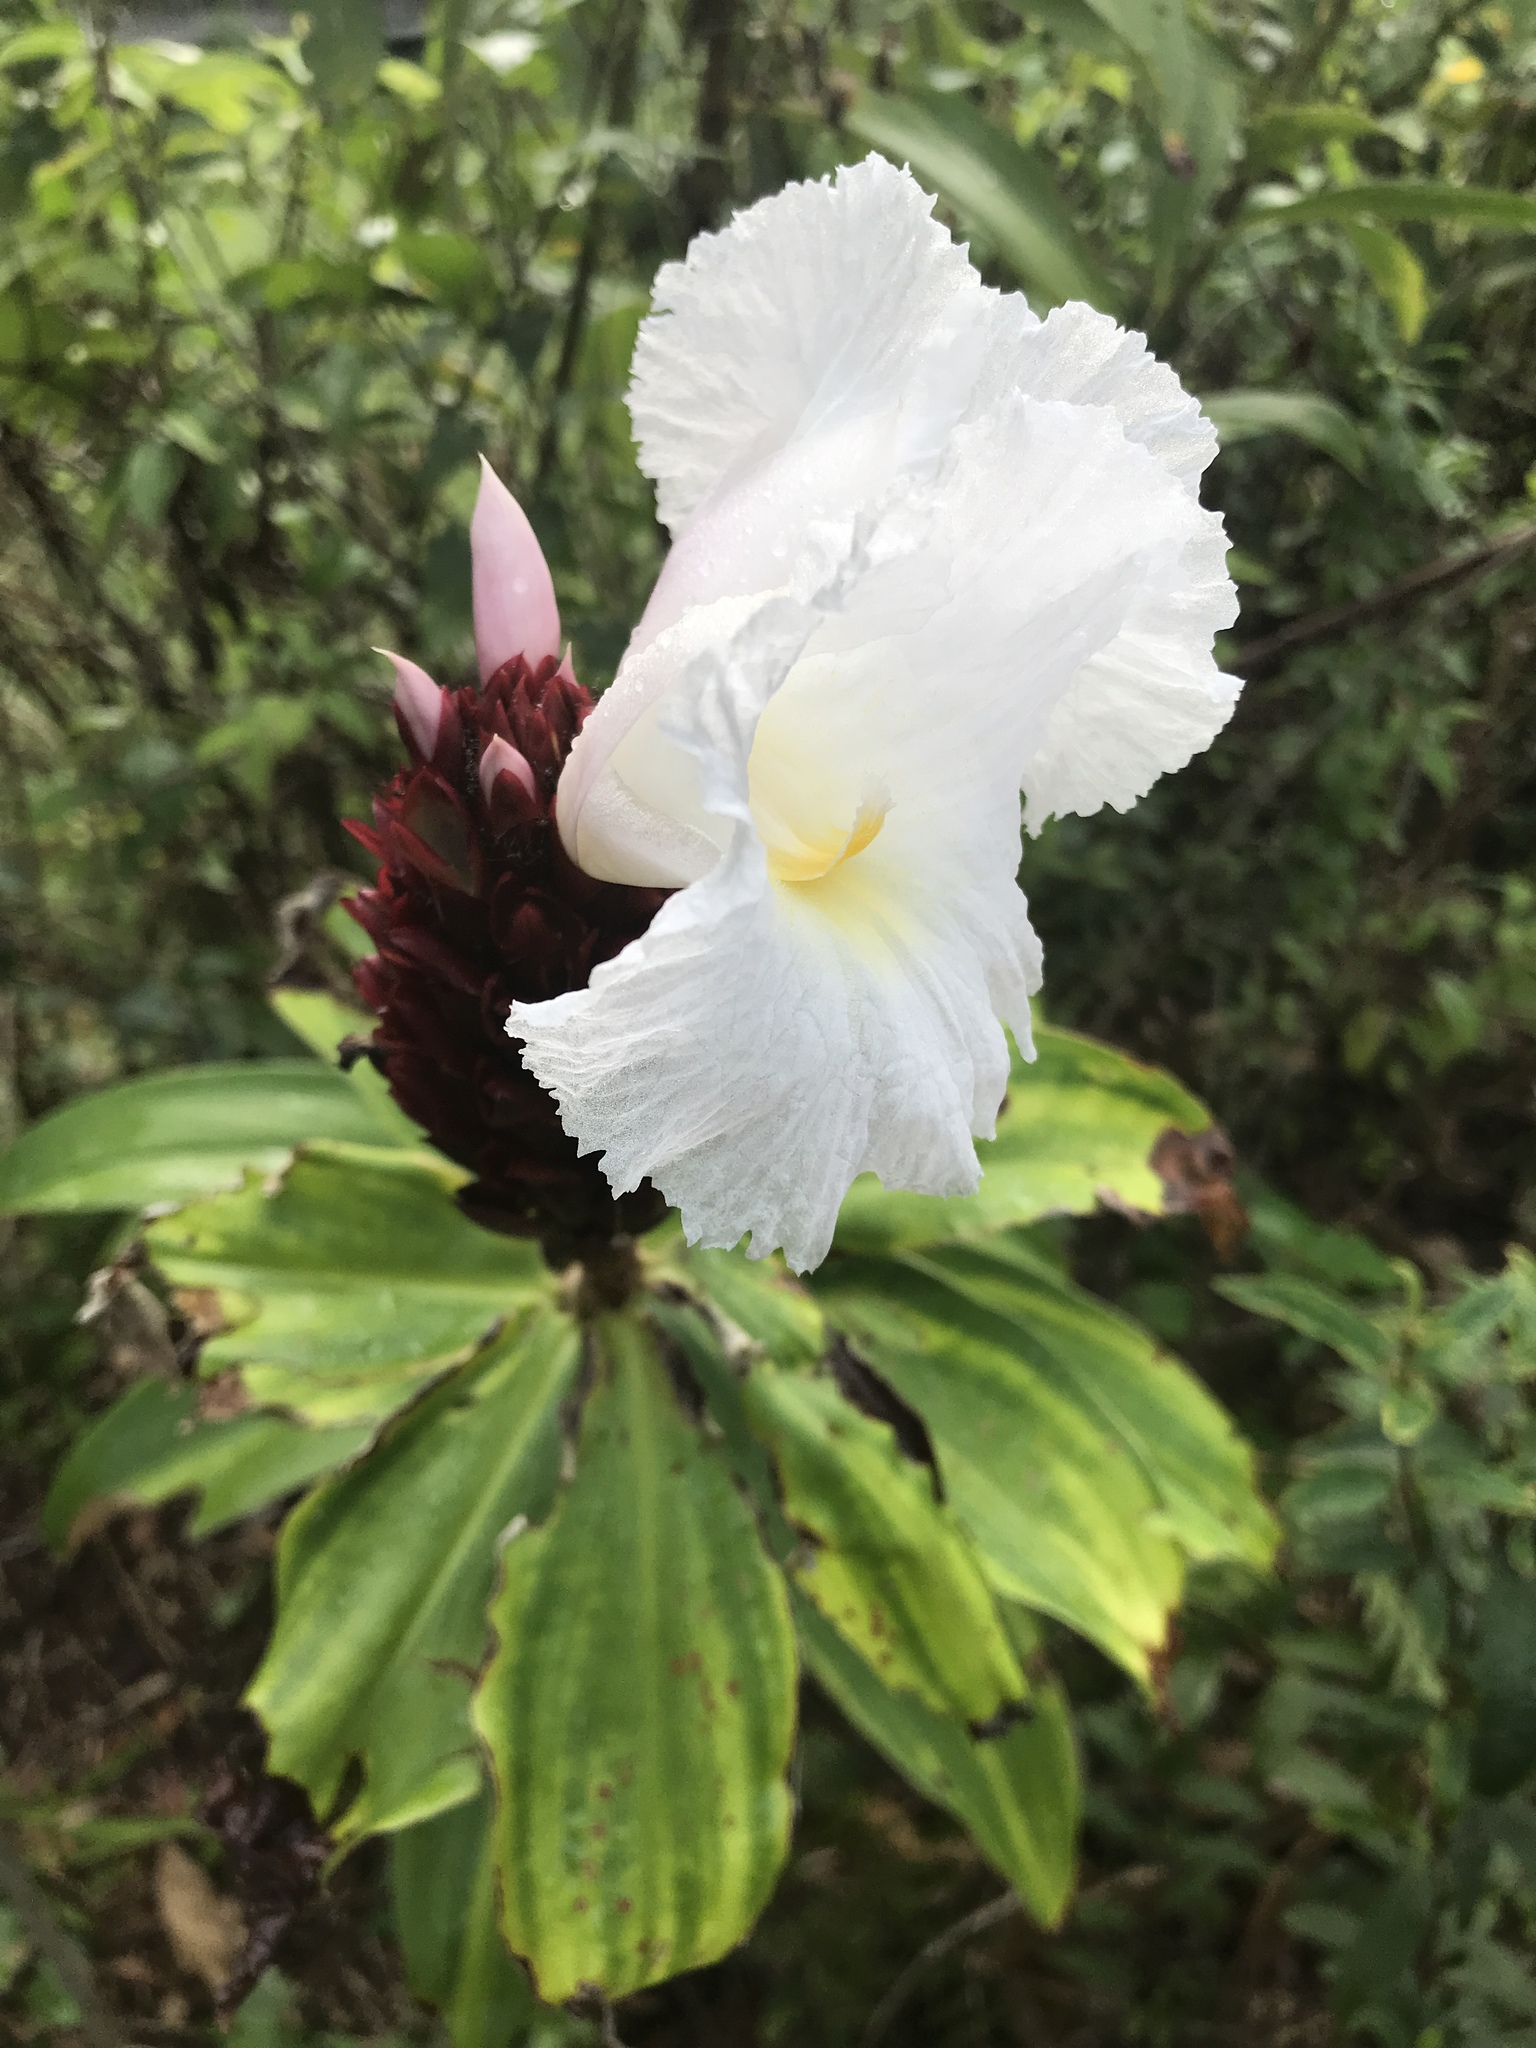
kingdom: Plantae
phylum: Tracheophyta
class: Liliopsida
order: Zingiberales
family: Costaceae
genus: Hellenia
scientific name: Hellenia speciosa
